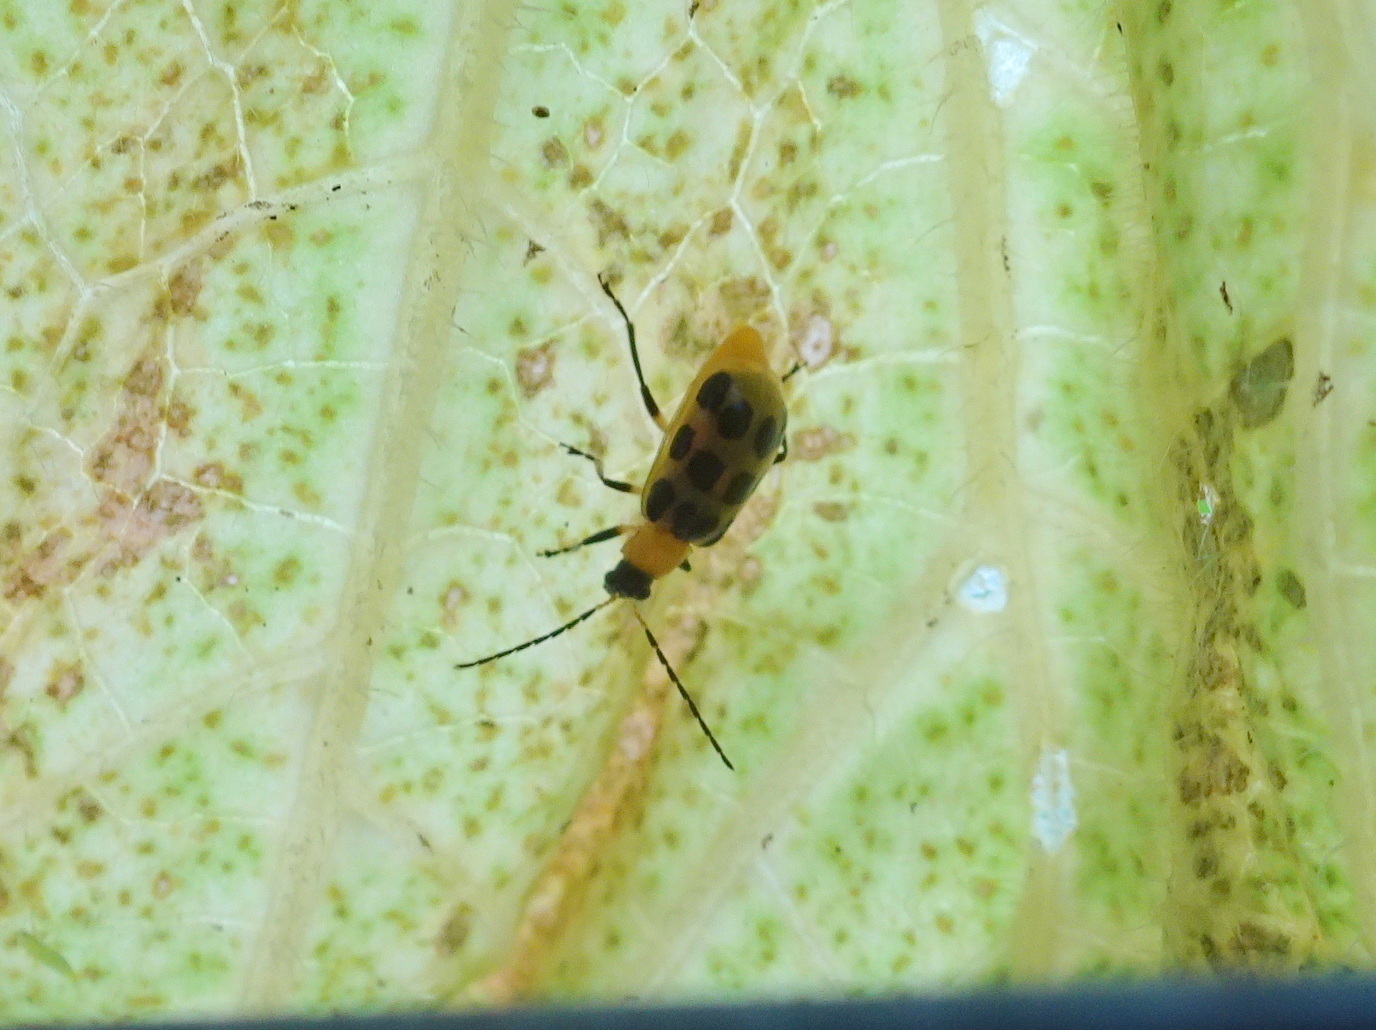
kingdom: Animalia
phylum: Arthropoda
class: Insecta
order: Coleoptera
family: Chrysomelidae
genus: Diabrotica
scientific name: Diabrotica undecimpunctata
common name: Spotted cucumber beetle
